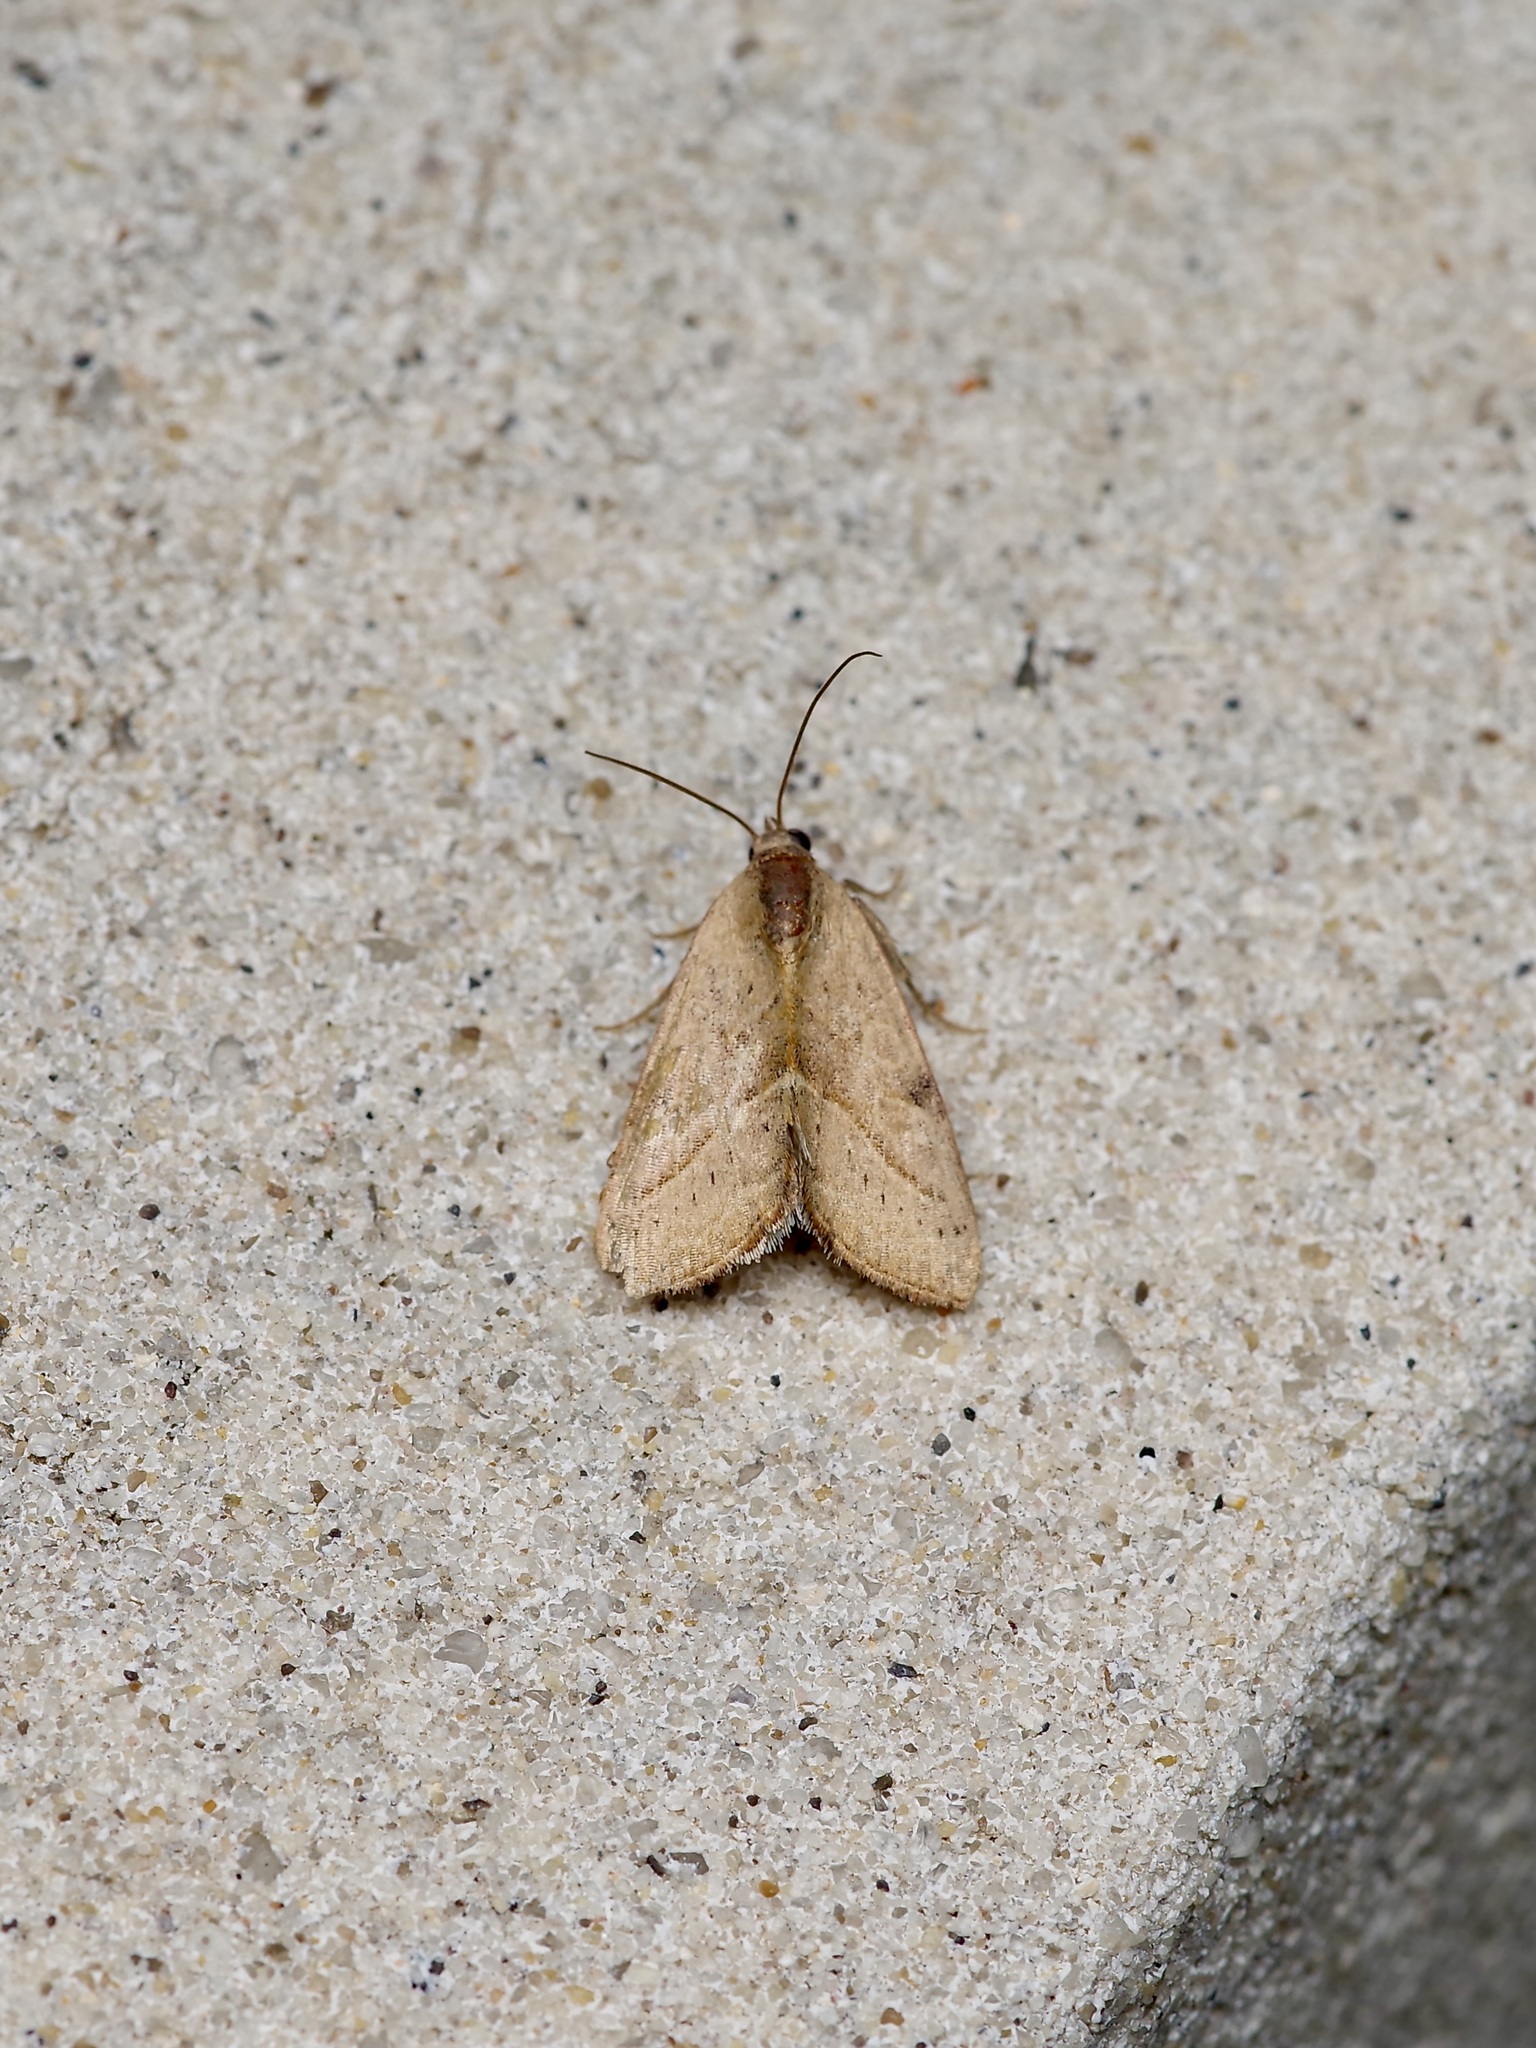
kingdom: Animalia
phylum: Arthropoda
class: Insecta
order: Lepidoptera
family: Noctuidae
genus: Galgula
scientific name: Galgula partita
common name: Wedgeling
